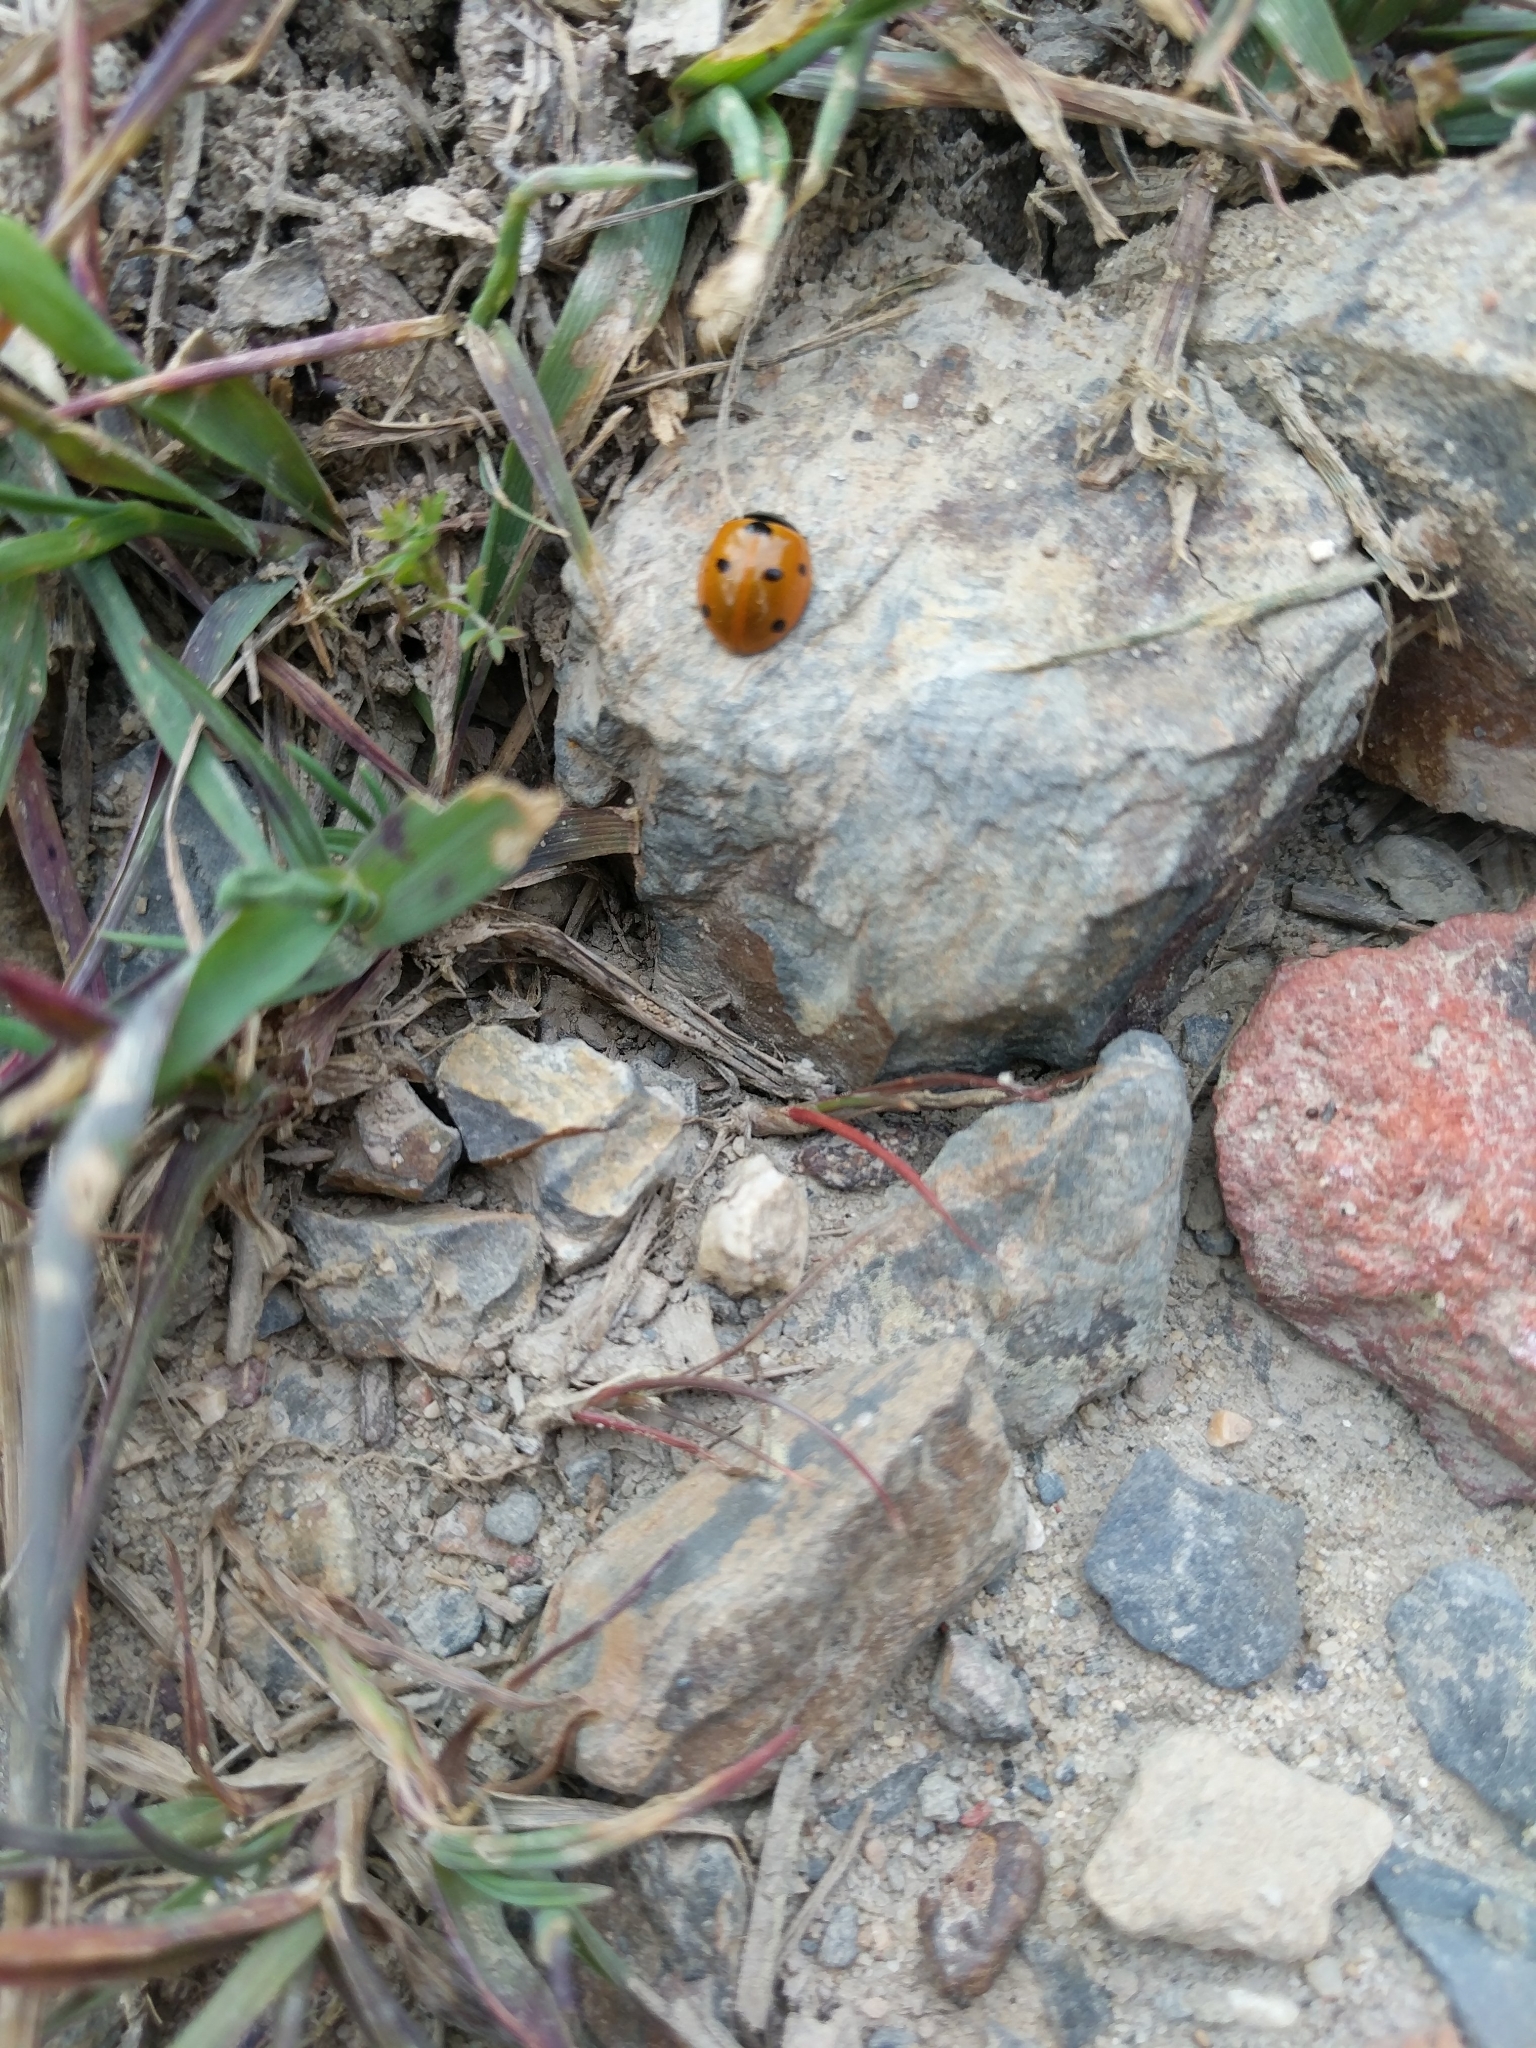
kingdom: Animalia
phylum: Arthropoda
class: Insecta
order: Coleoptera
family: Coccinellidae
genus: Coccinella
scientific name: Coccinella septempunctata
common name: Sevenspotted lady beetle
